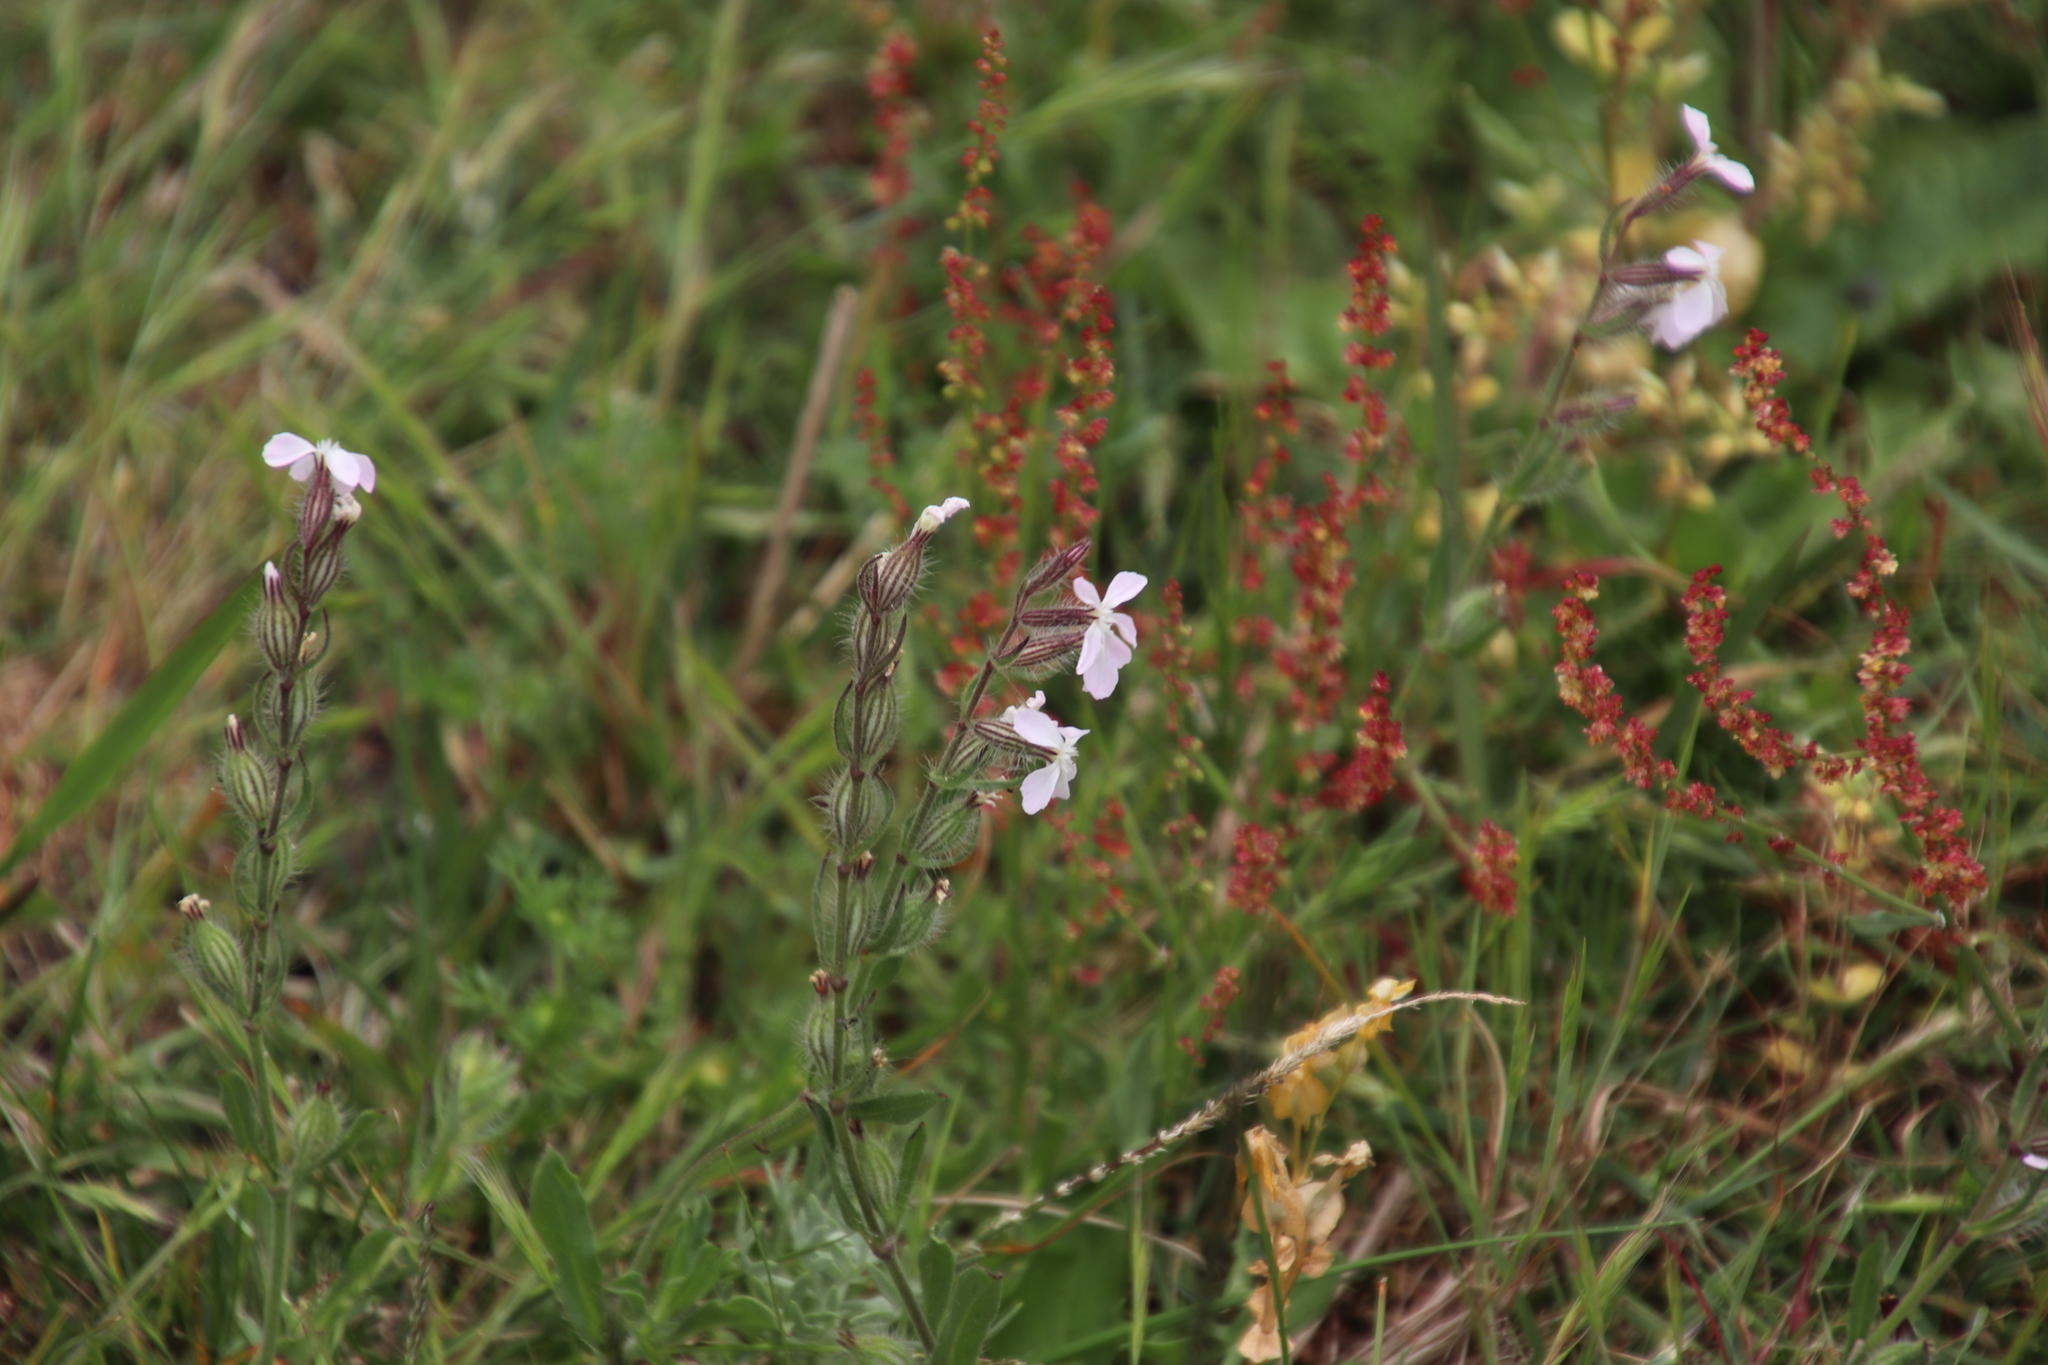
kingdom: Plantae
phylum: Tracheophyta
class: Magnoliopsida
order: Caryophyllales
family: Caryophyllaceae
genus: Silene
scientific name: Silene gallica
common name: Small-flowered catchfly
